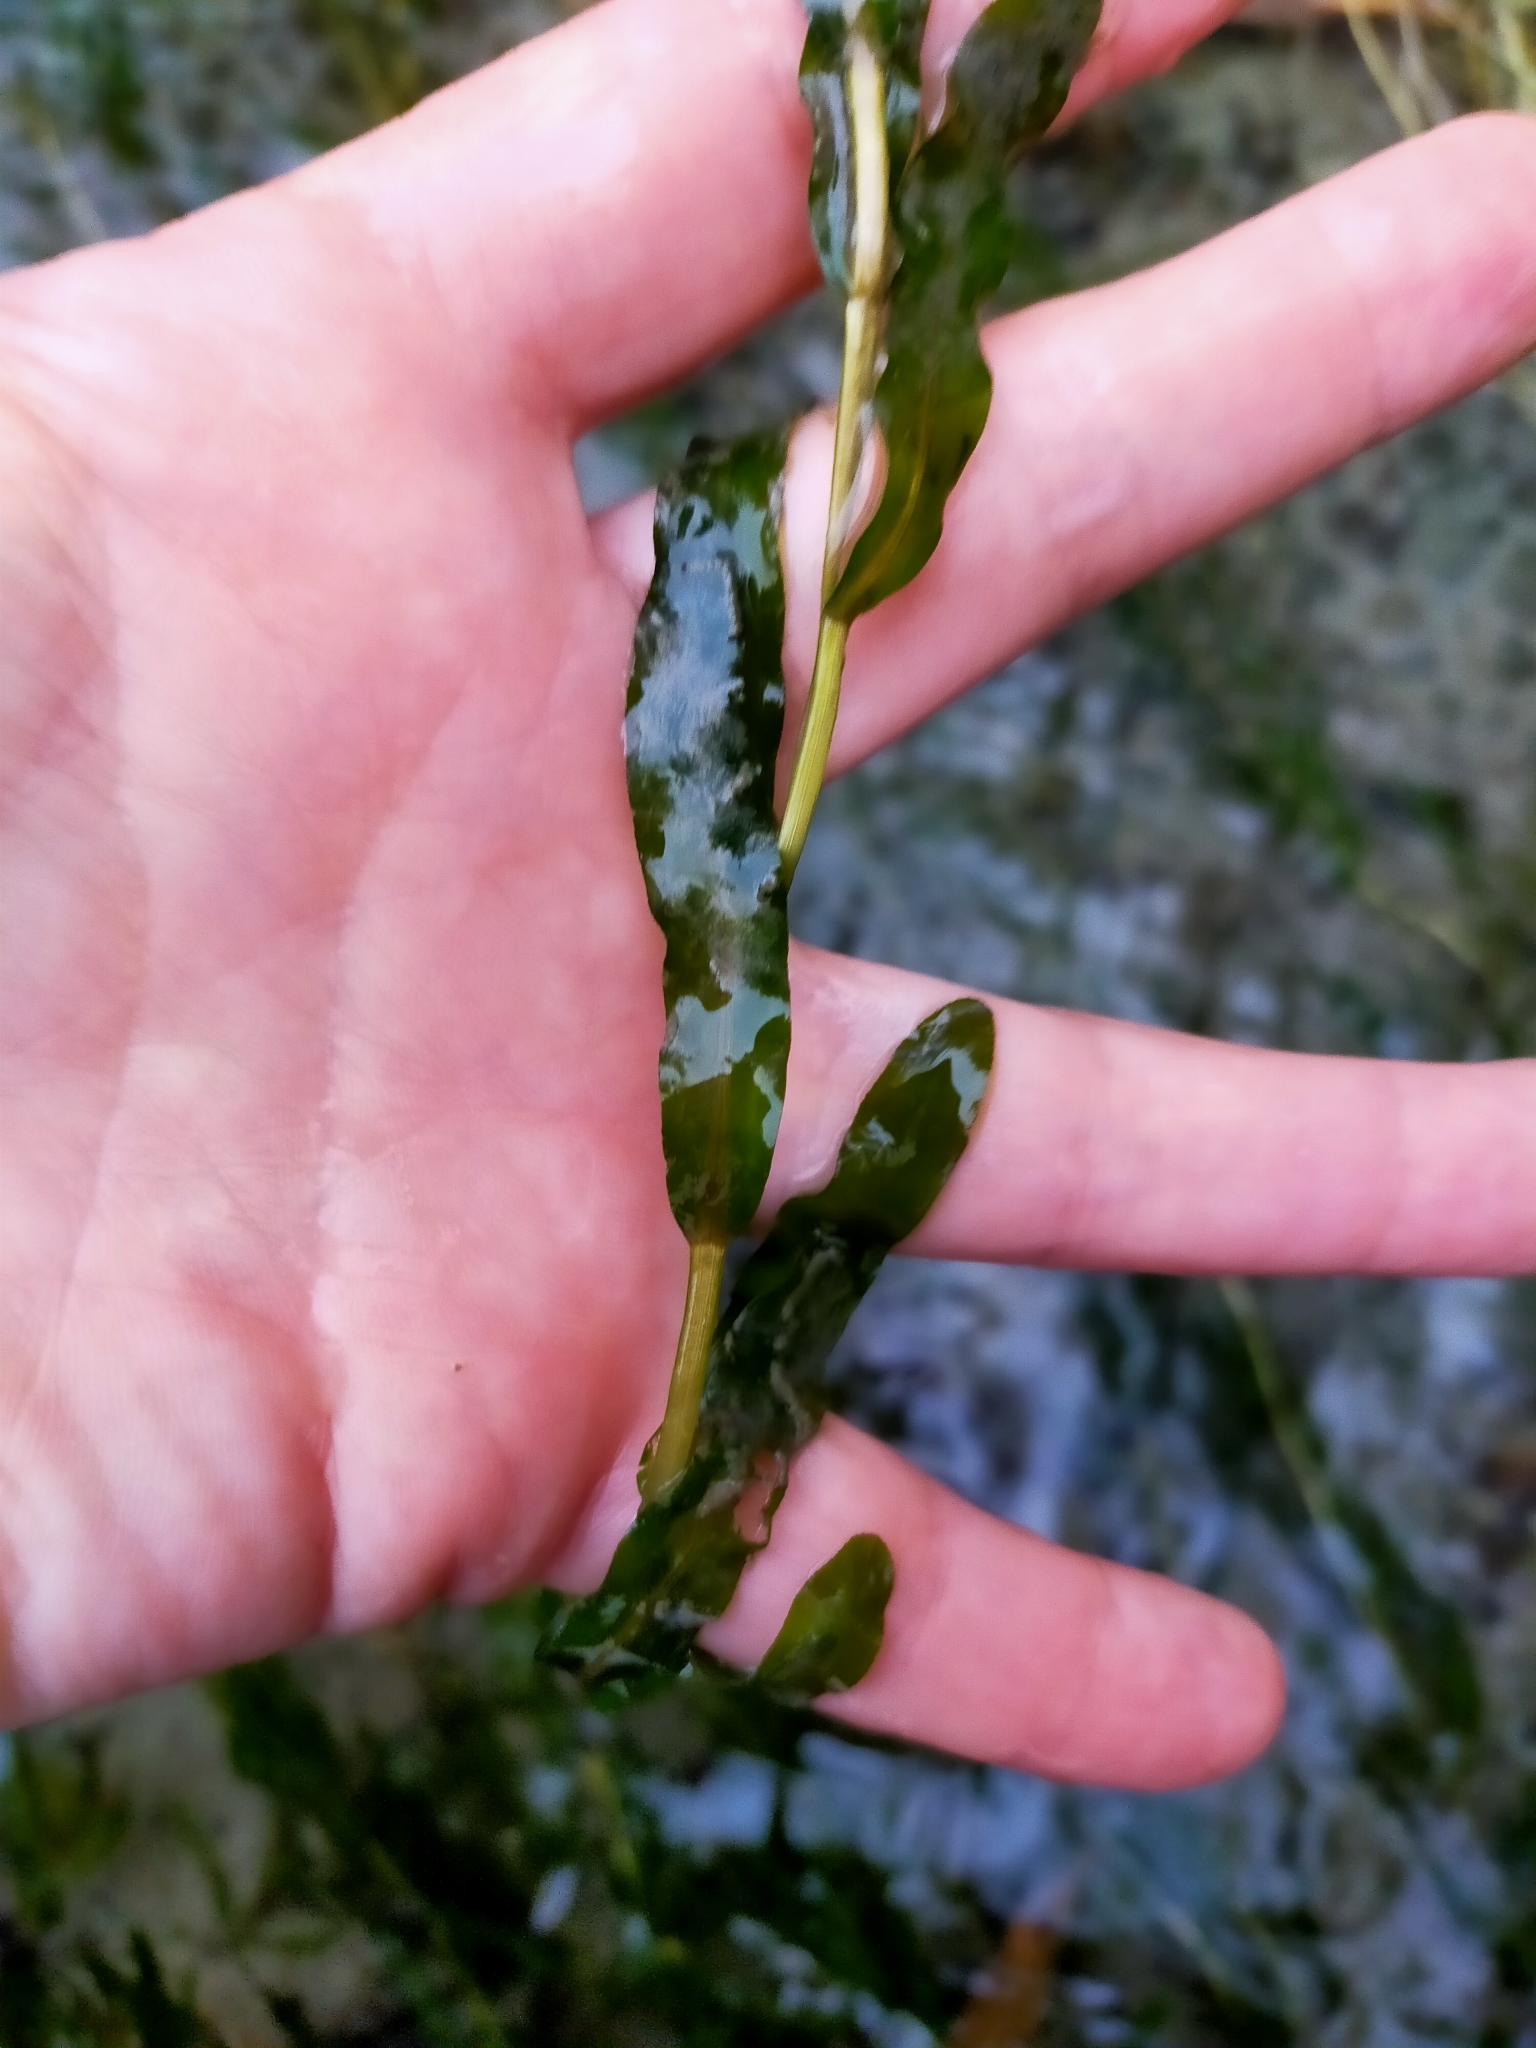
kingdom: Plantae
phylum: Tracheophyta
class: Liliopsida
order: Alismatales
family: Potamogetonaceae
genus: Potamogeton
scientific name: Potamogeton crispus
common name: Curled pondweed
